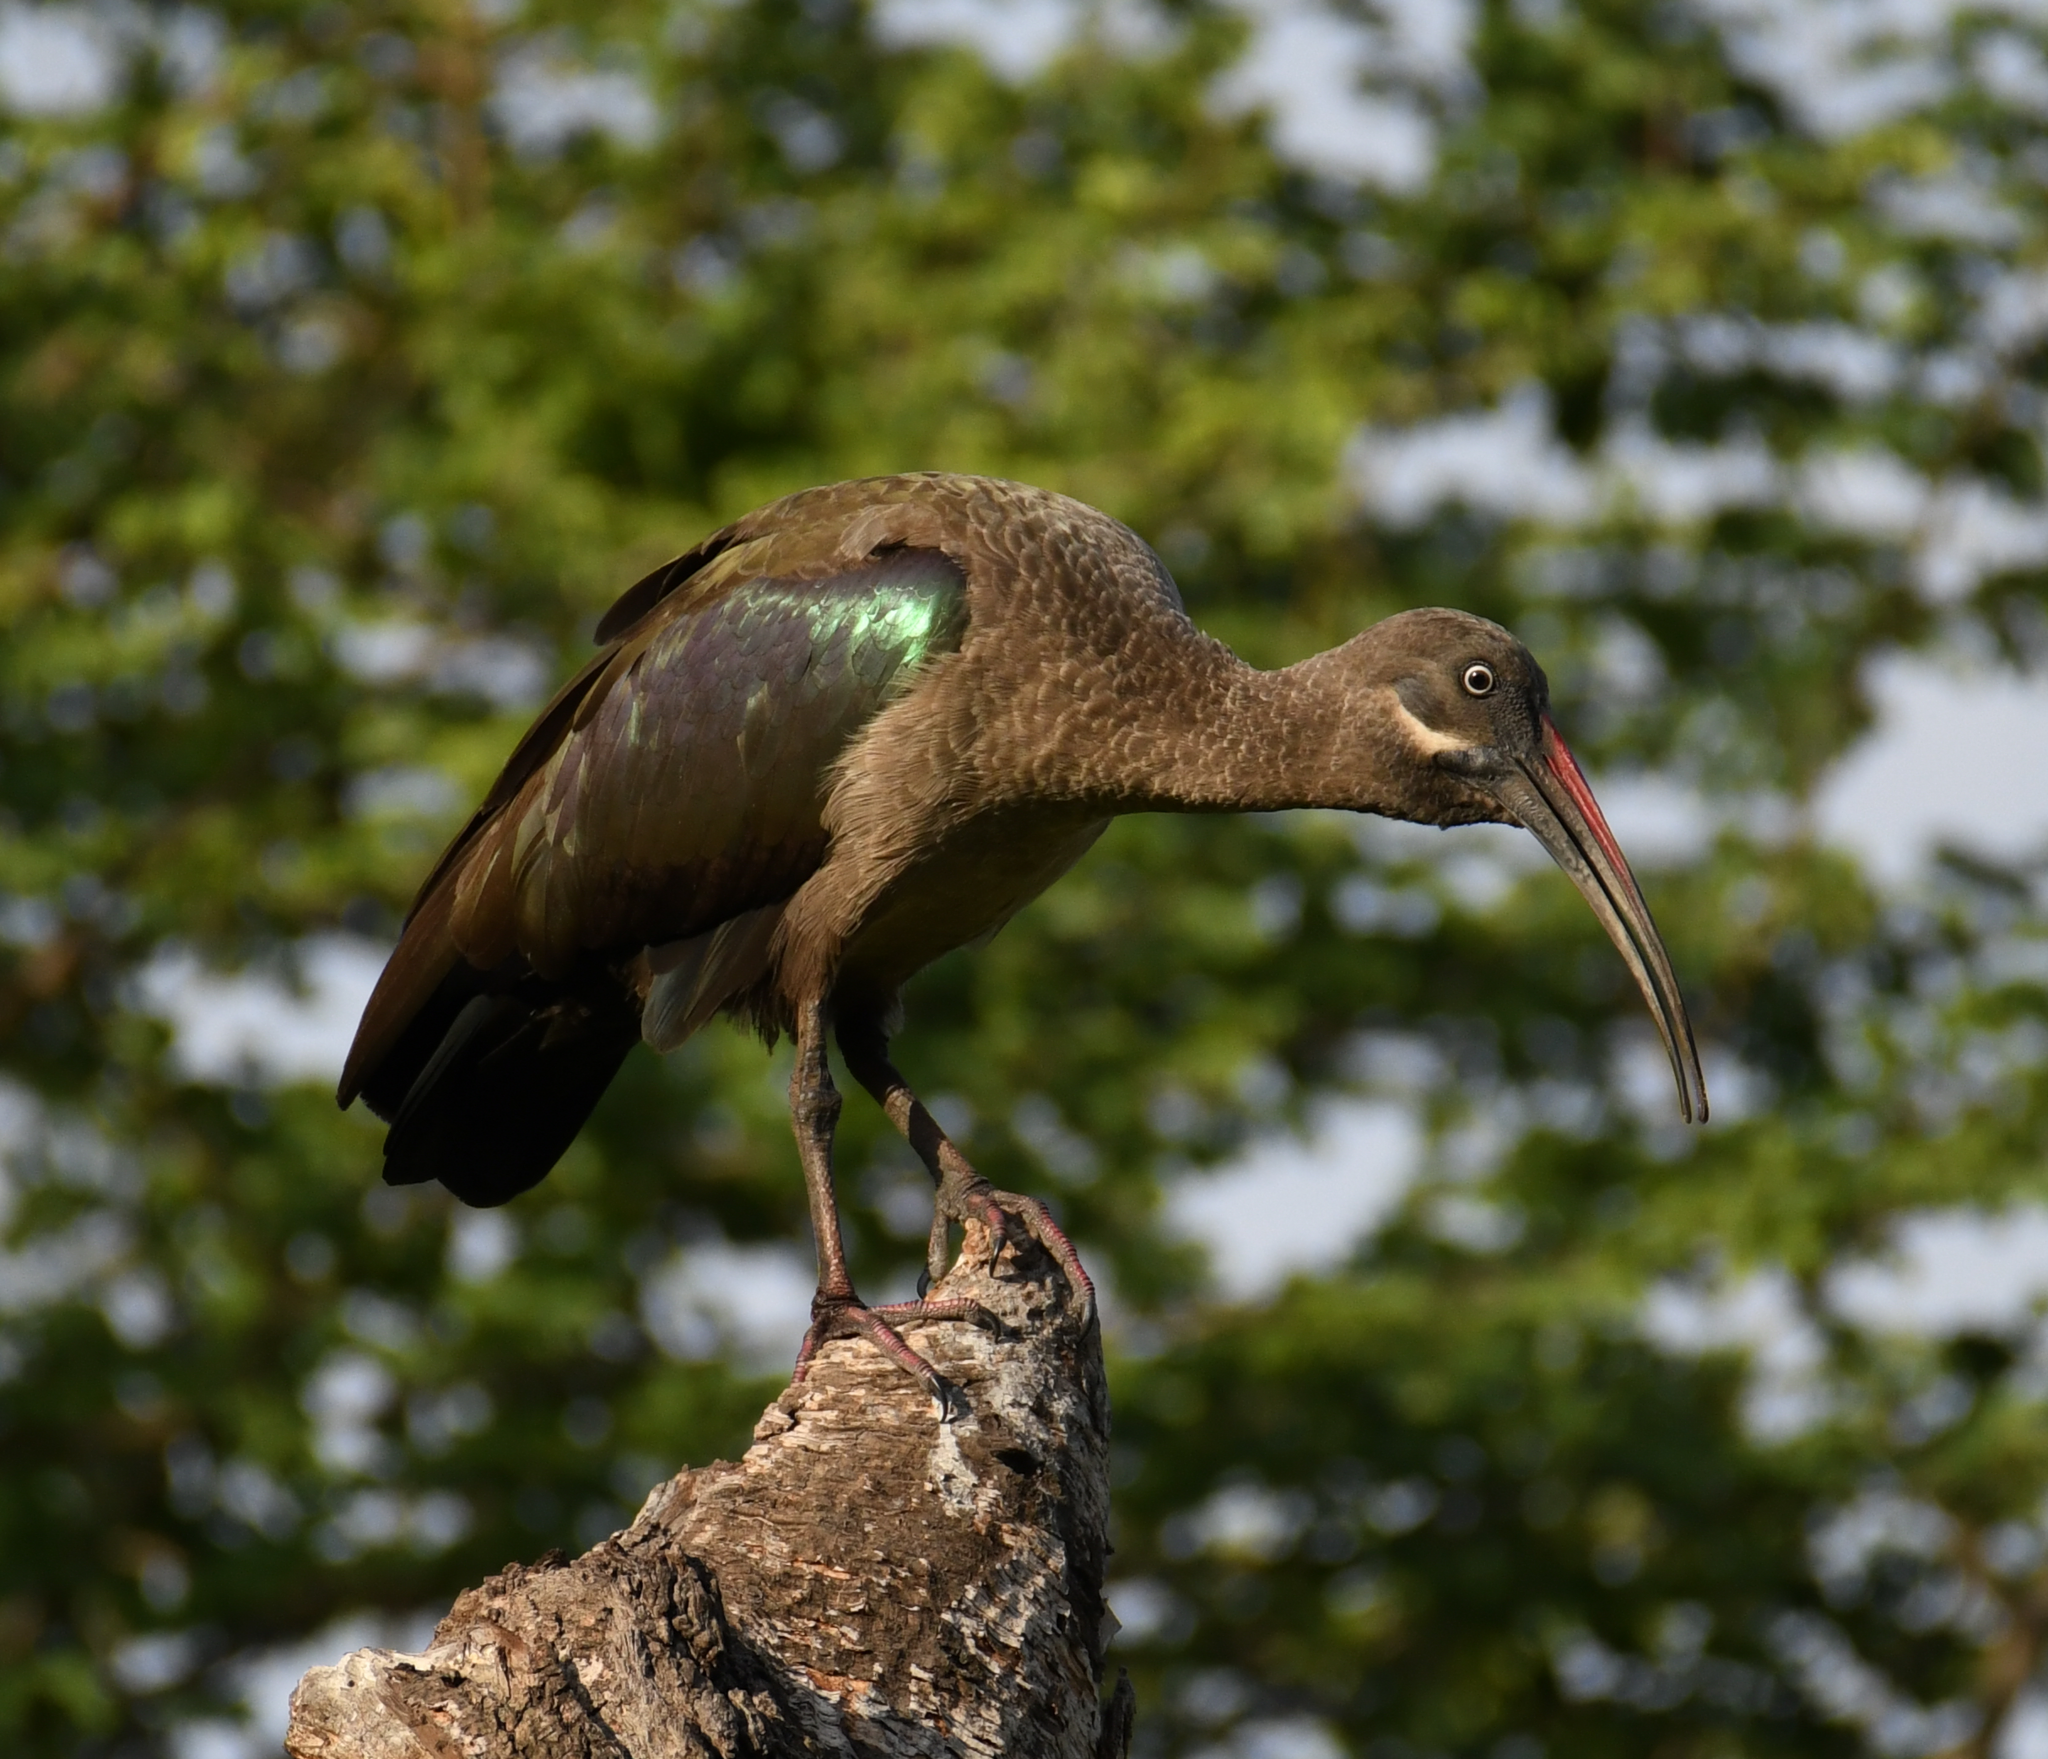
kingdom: Animalia
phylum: Chordata
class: Aves
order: Pelecaniformes
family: Threskiornithidae
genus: Bostrychia
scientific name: Bostrychia hagedash
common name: Hadada ibis
